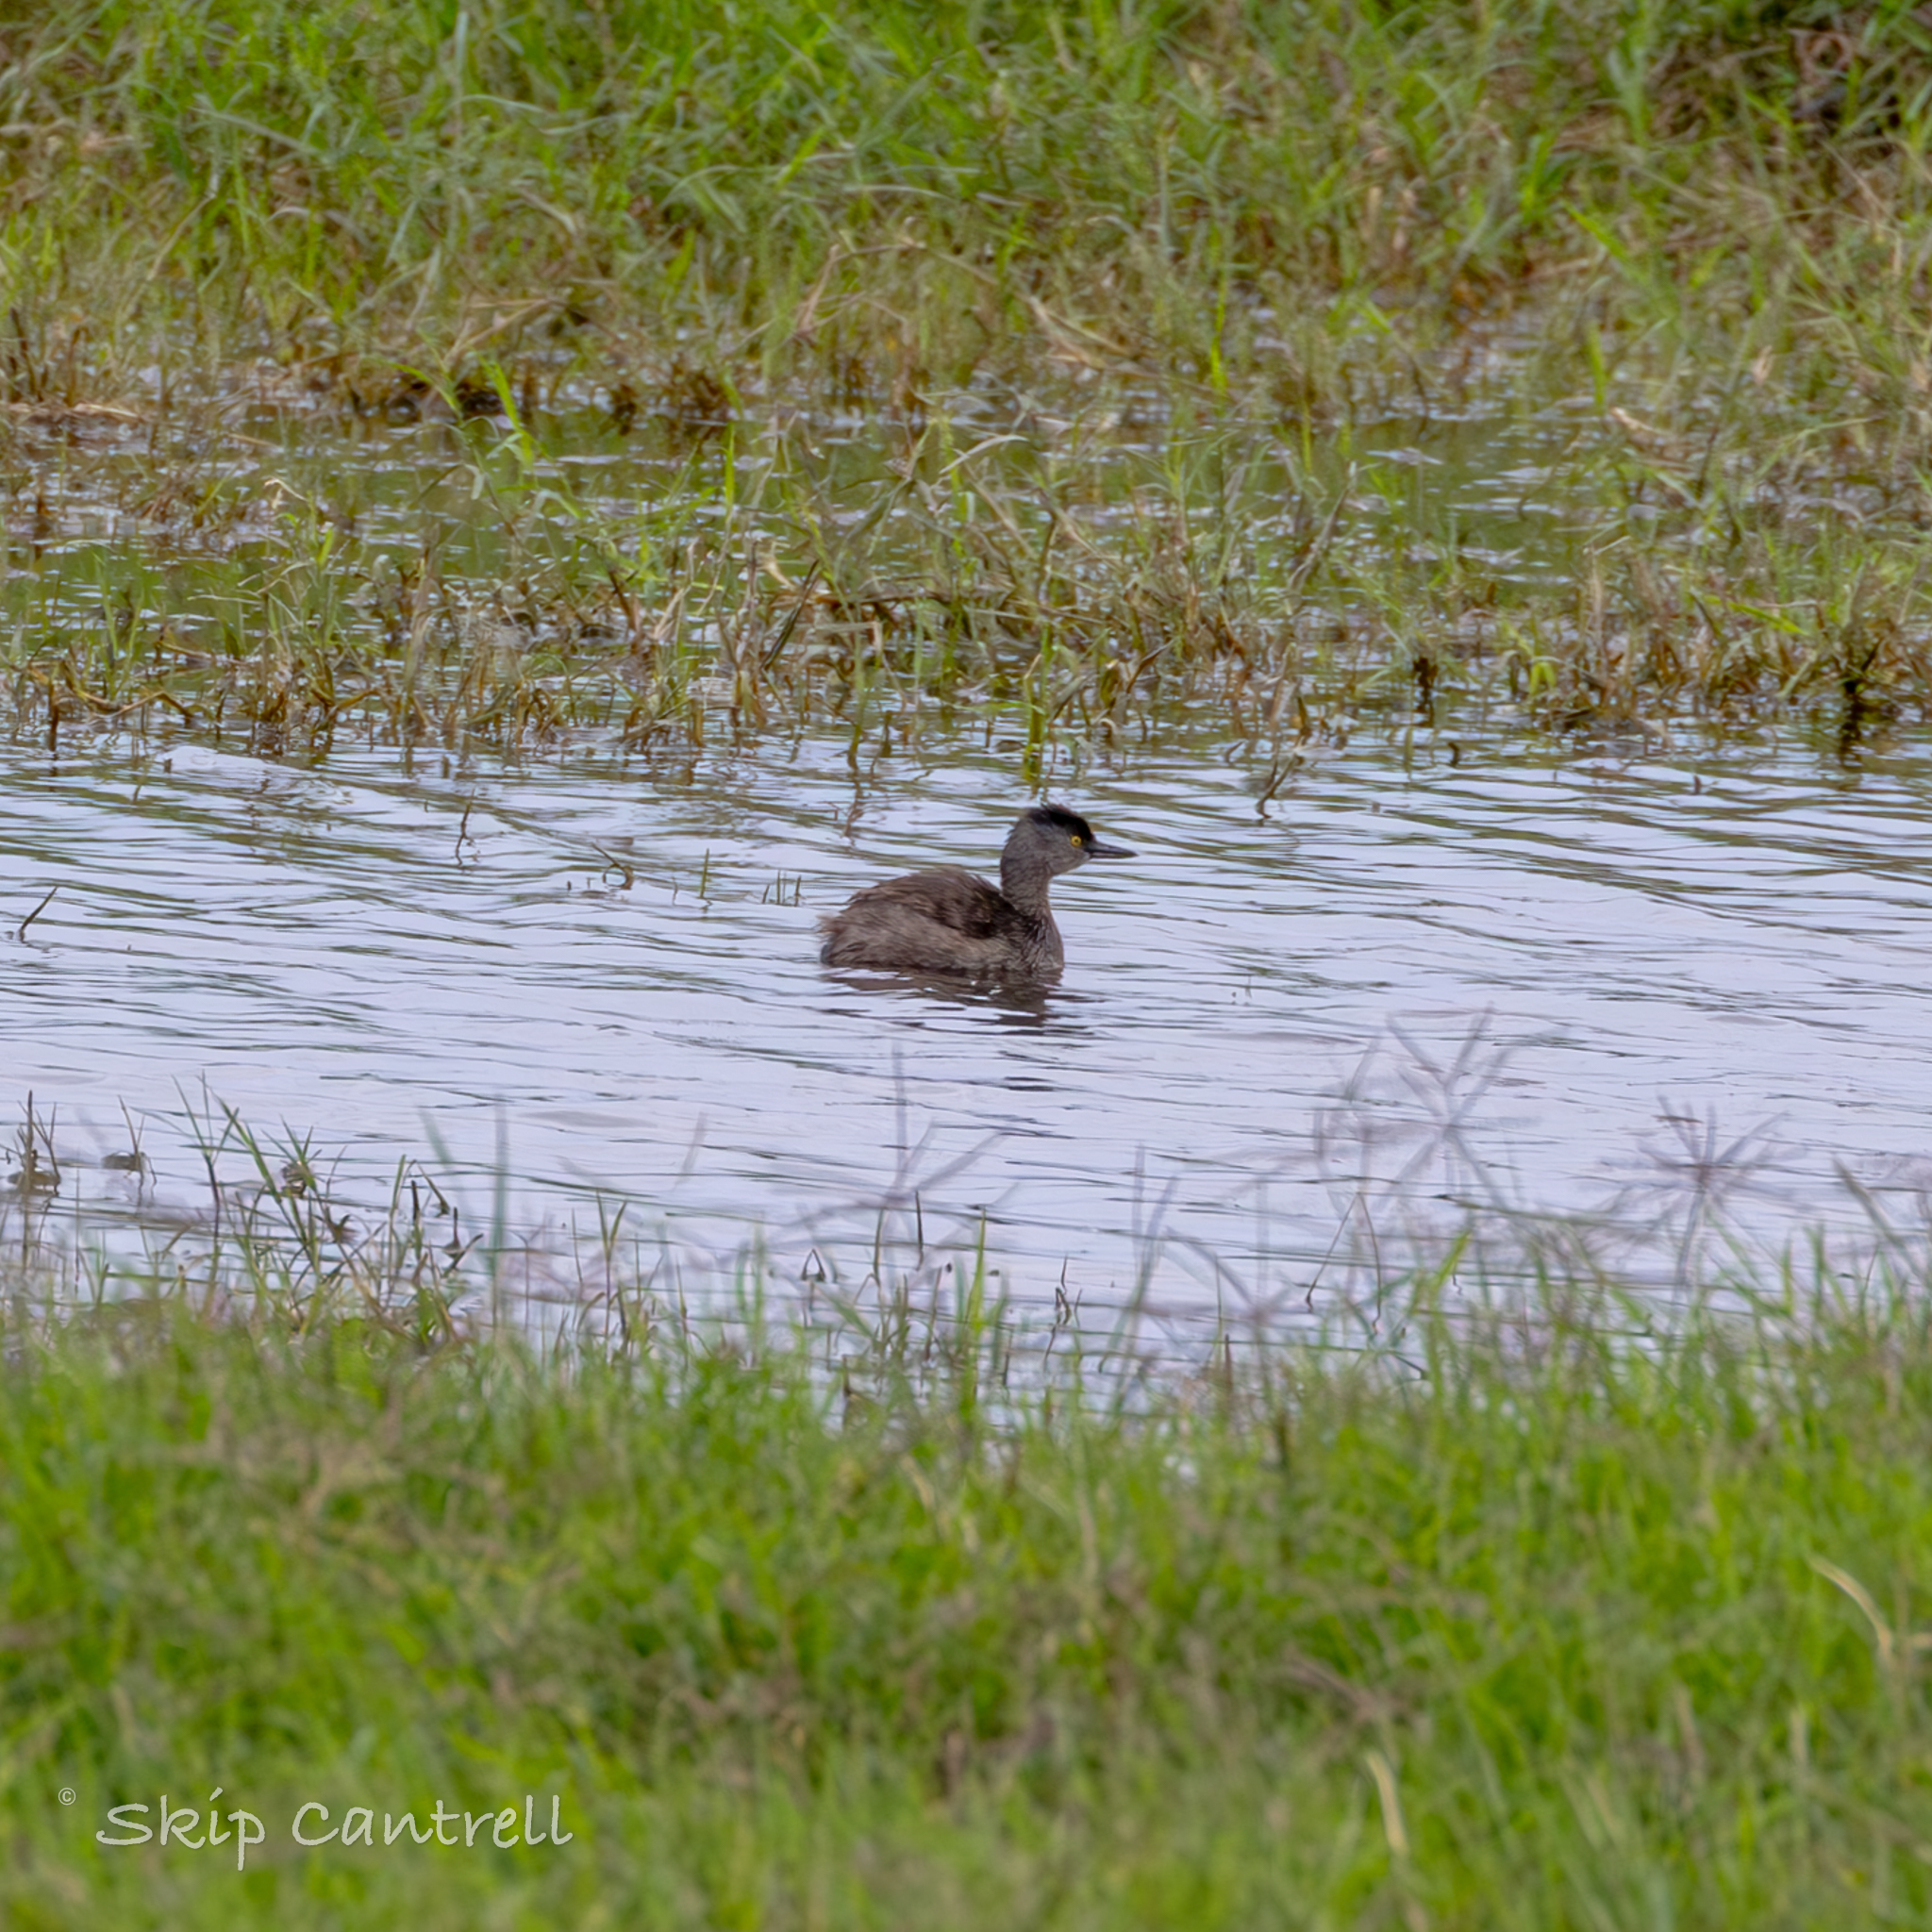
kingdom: Animalia
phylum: Chordata
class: Aves
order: Podicipediformes
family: Podicipedidae
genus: Tachybaptus
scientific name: Tachybaptus dominicus
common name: Least grebe
